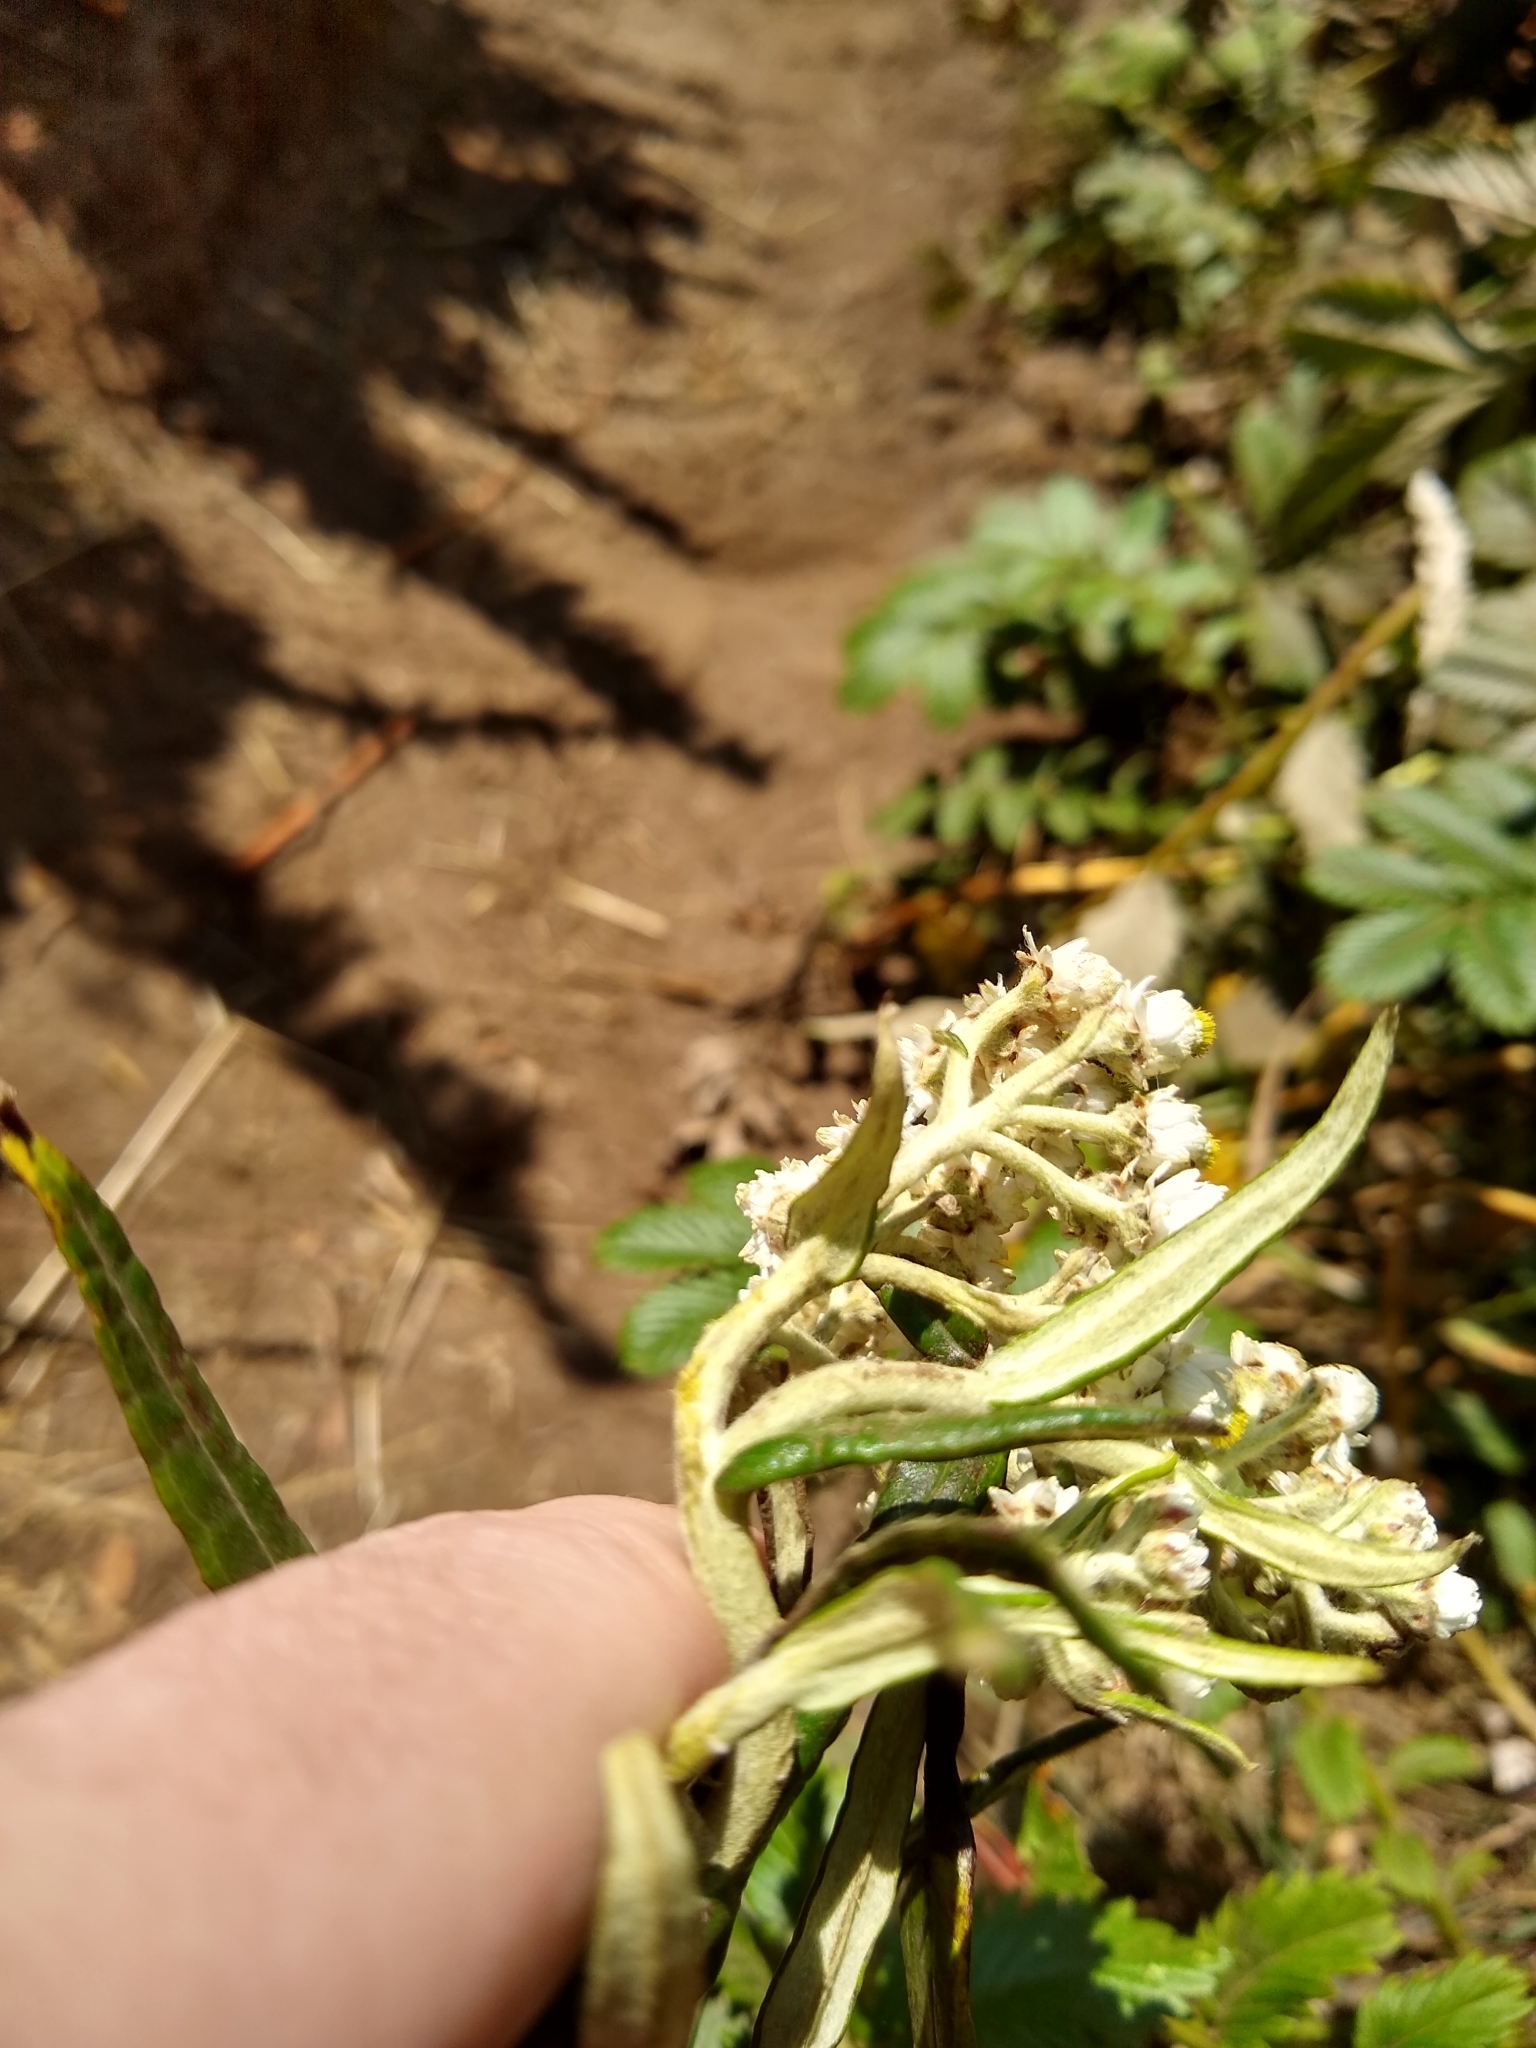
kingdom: Plantae
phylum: Tracheophyta
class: Magnoliopsida
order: Asterales
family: Asteraceae
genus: Anaphalis
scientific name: Anaphalis margaritacea
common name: Pearly everlasting
